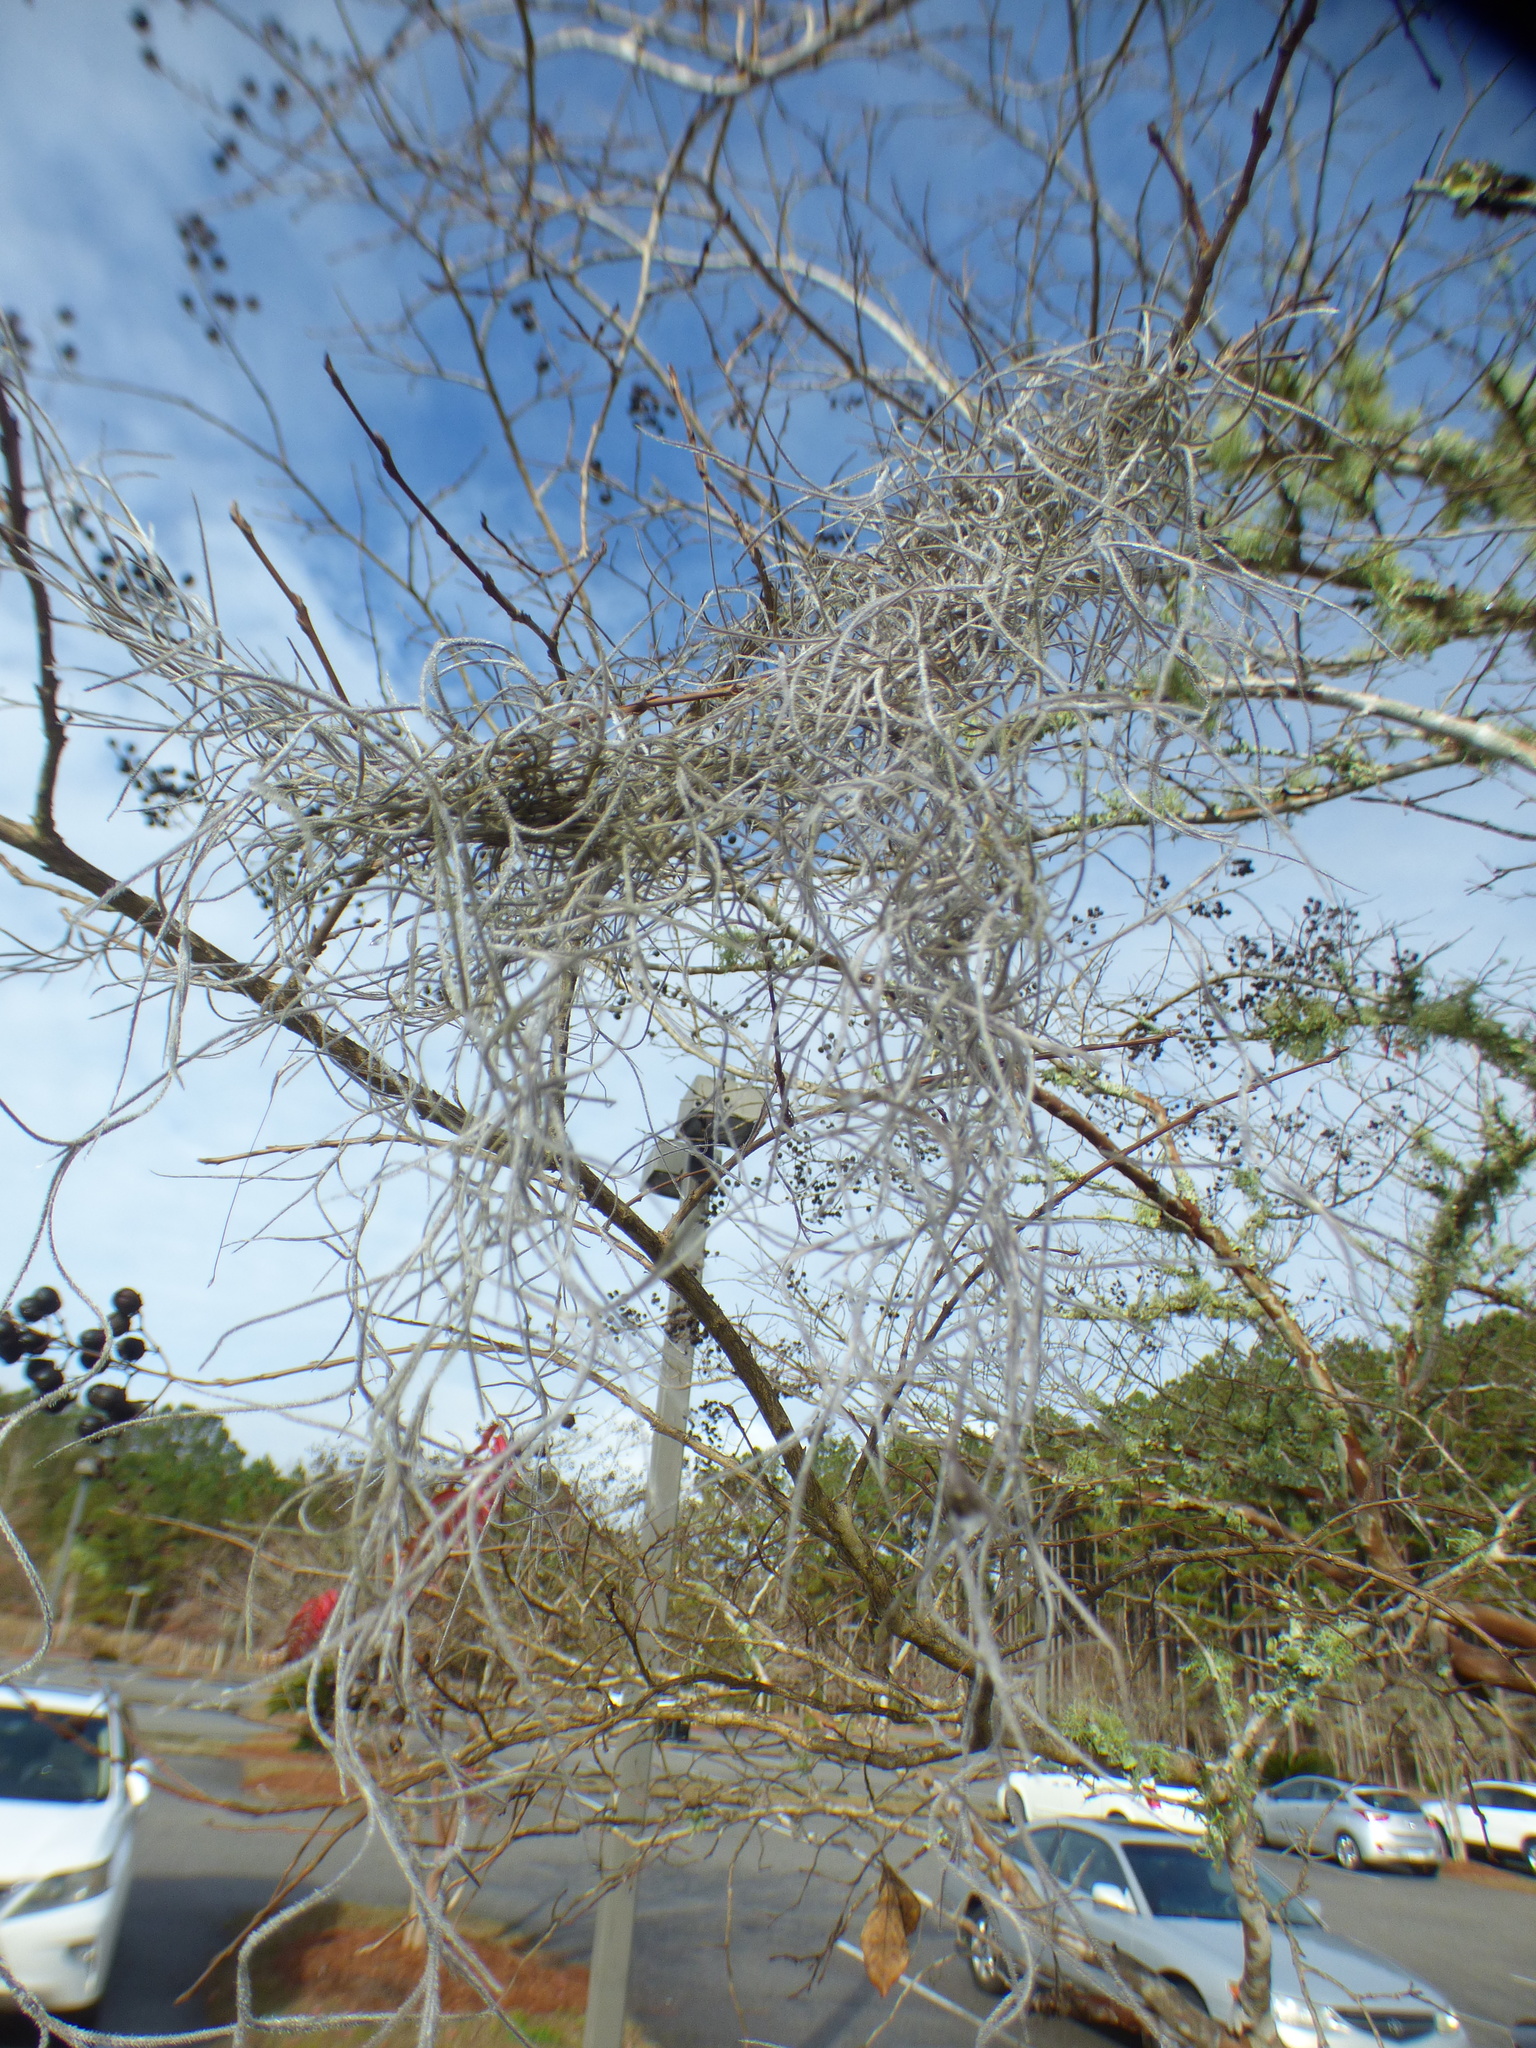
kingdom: Plantae
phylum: Tracheophyta
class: Liliopsida
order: Poales
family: Bromeliaceae
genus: Tillandsia
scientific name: Tillandsia usneoides
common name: Spanish moss
